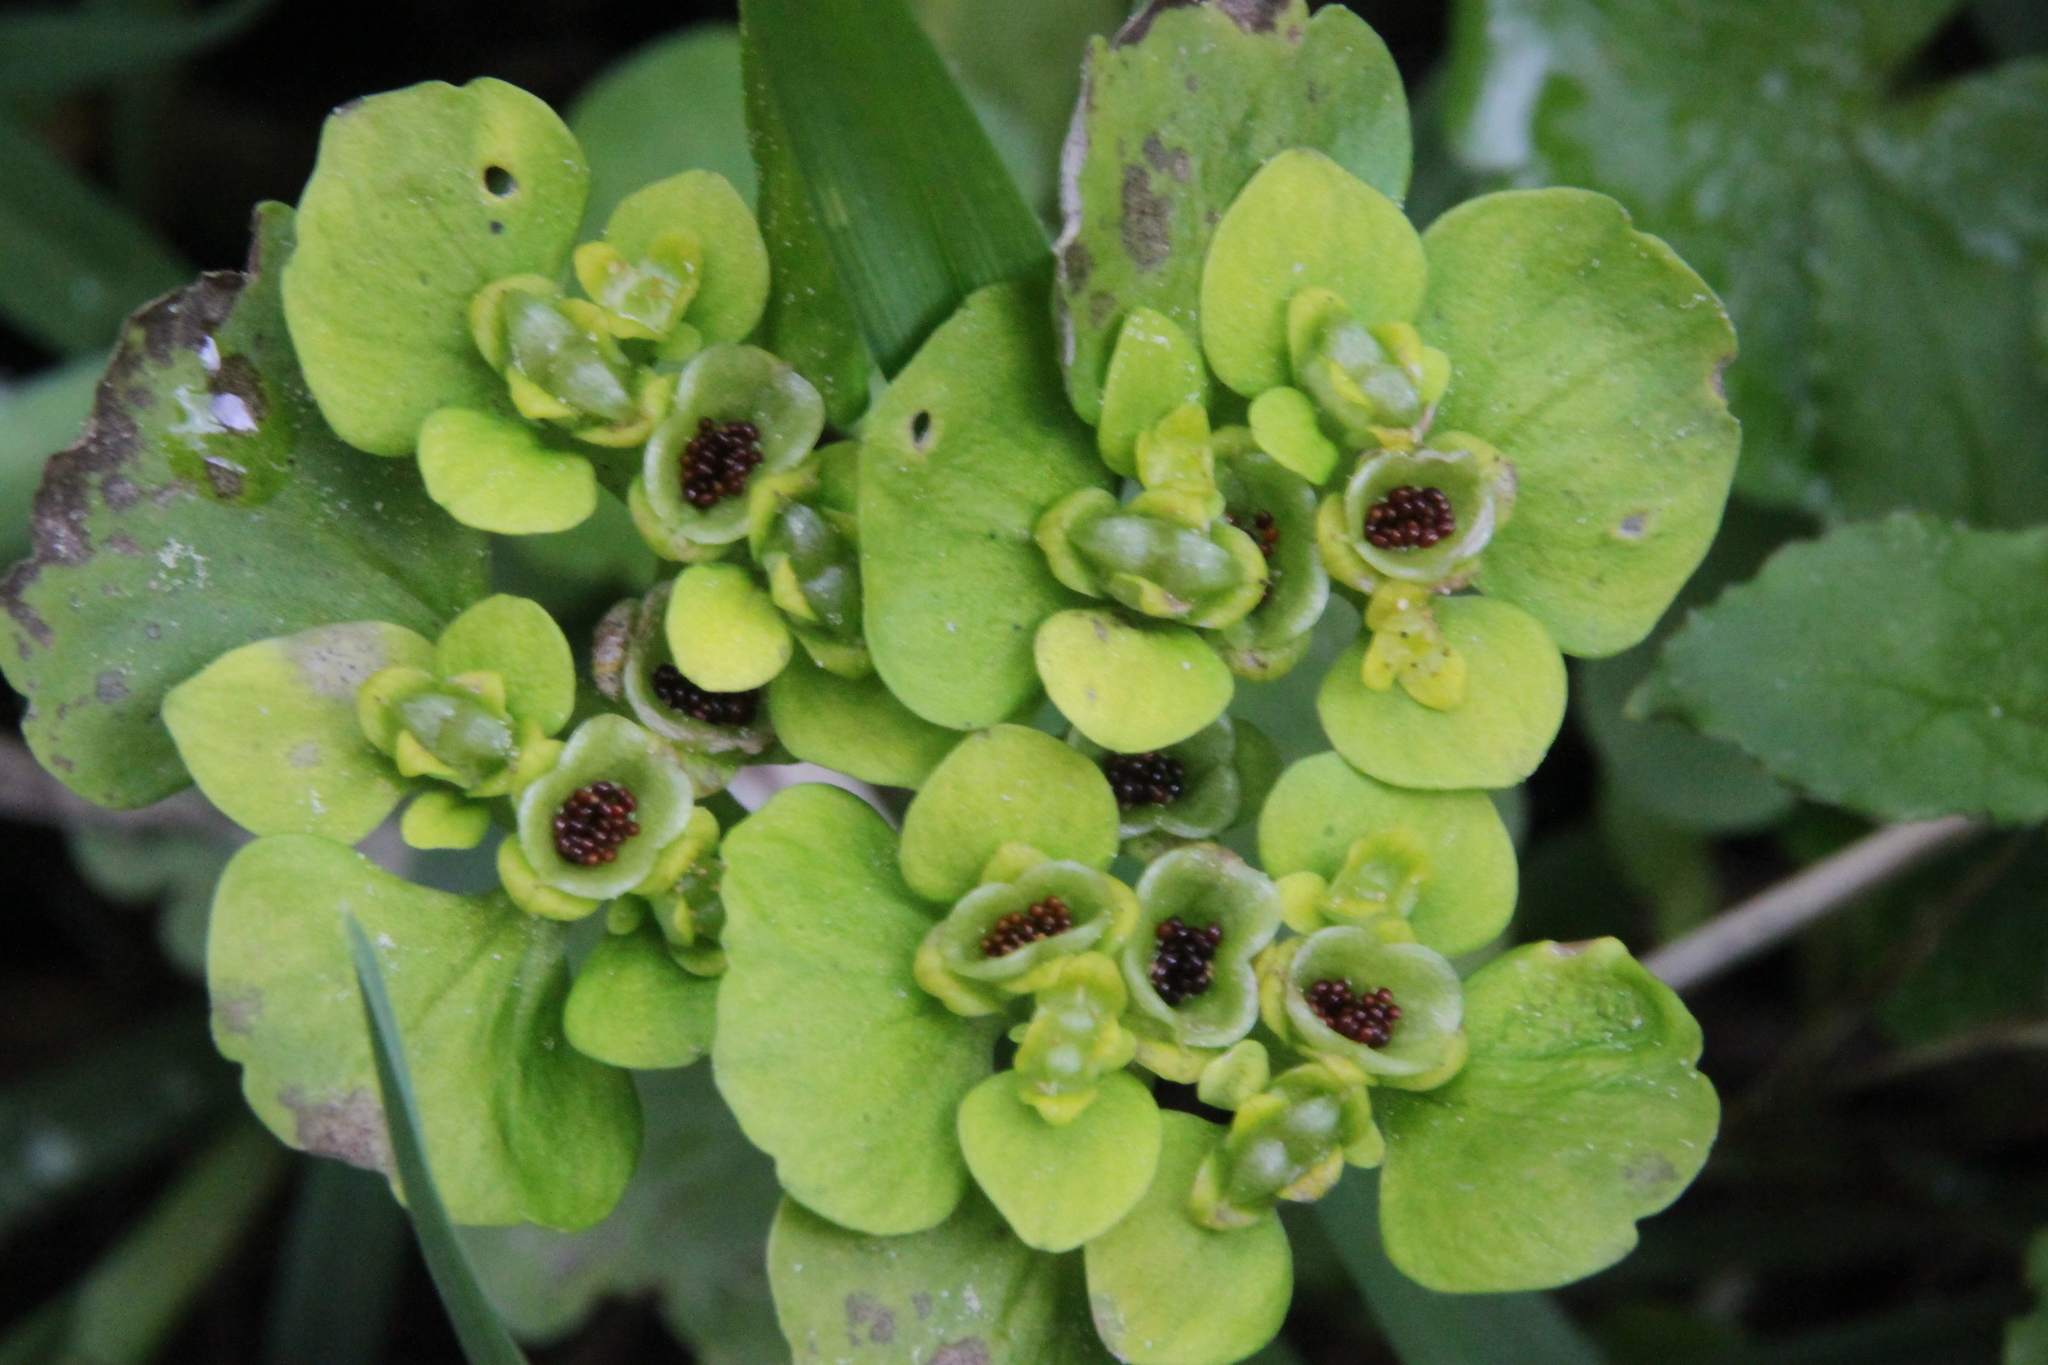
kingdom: Plantae
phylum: Tracheophyta
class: Magnoliopsida
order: Saxifragales
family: Saxifragaceae
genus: Chrysosplenium
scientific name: Chrysosplenium alternifolium
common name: Alternate-leaved golden-saxifrage
